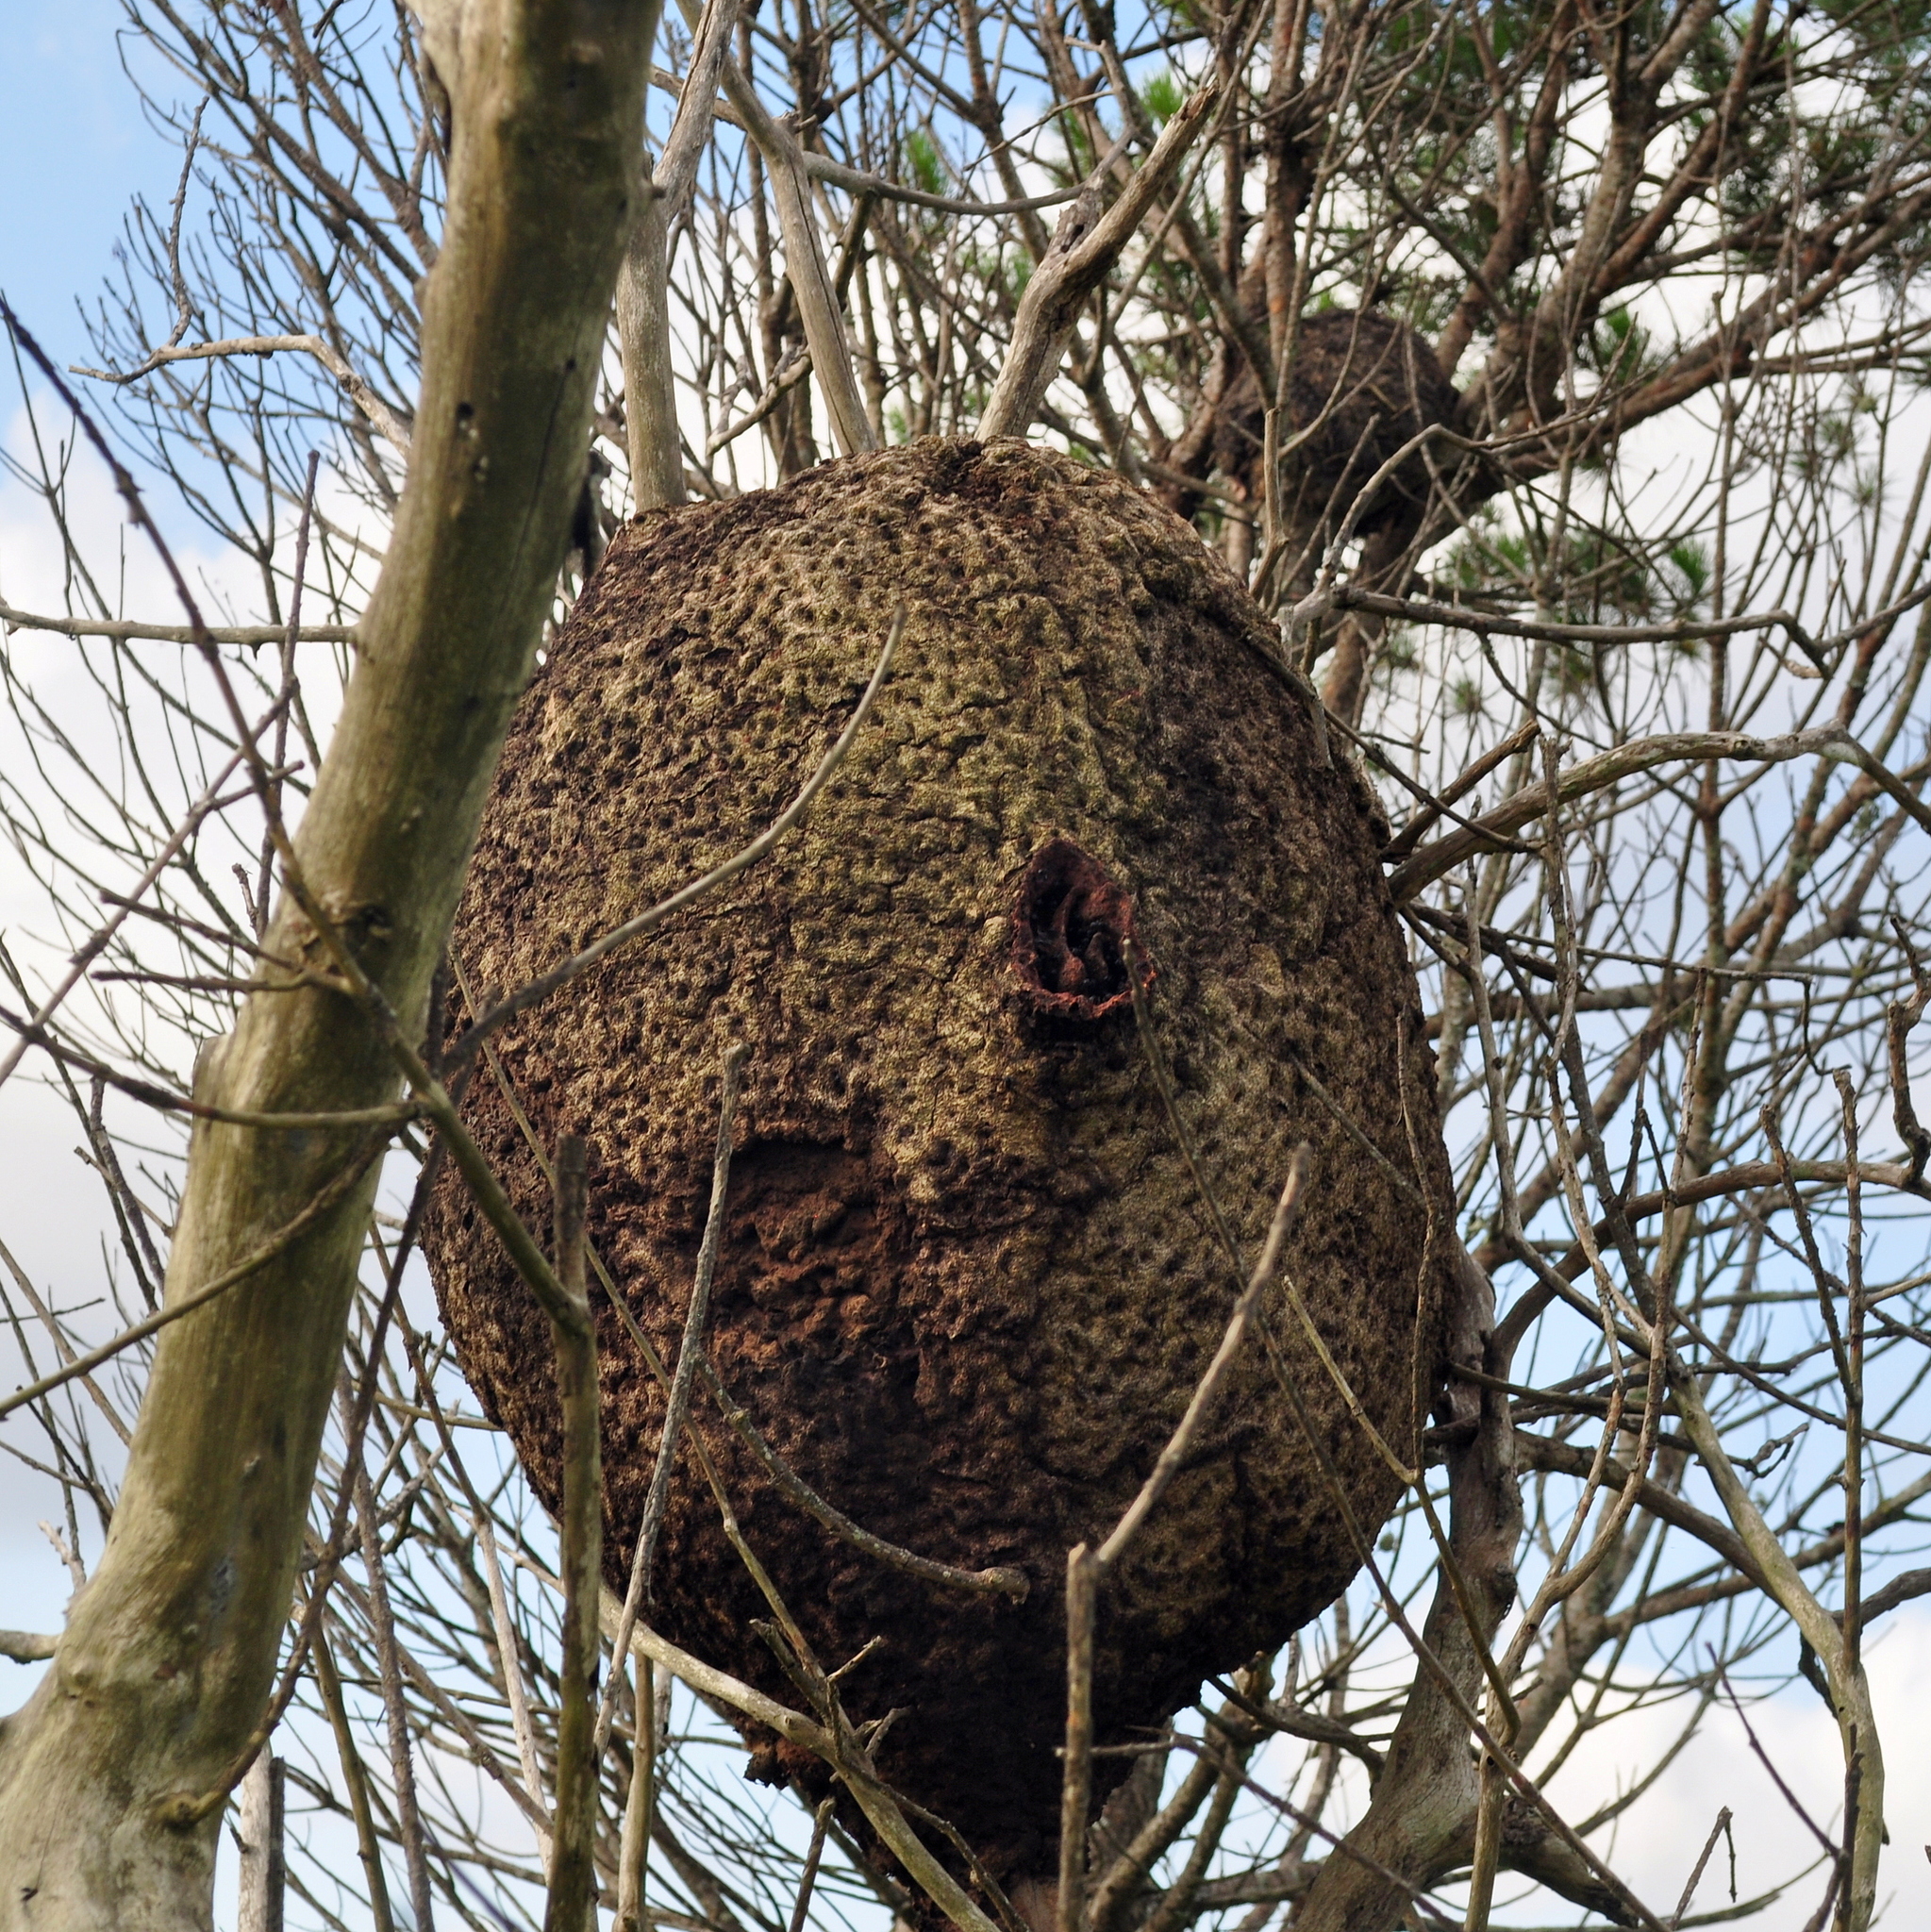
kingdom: Animalia
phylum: Arthropoda
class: Insecta
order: Hymenoptera
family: Apidae
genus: Trigona
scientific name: Trigona spinipes
